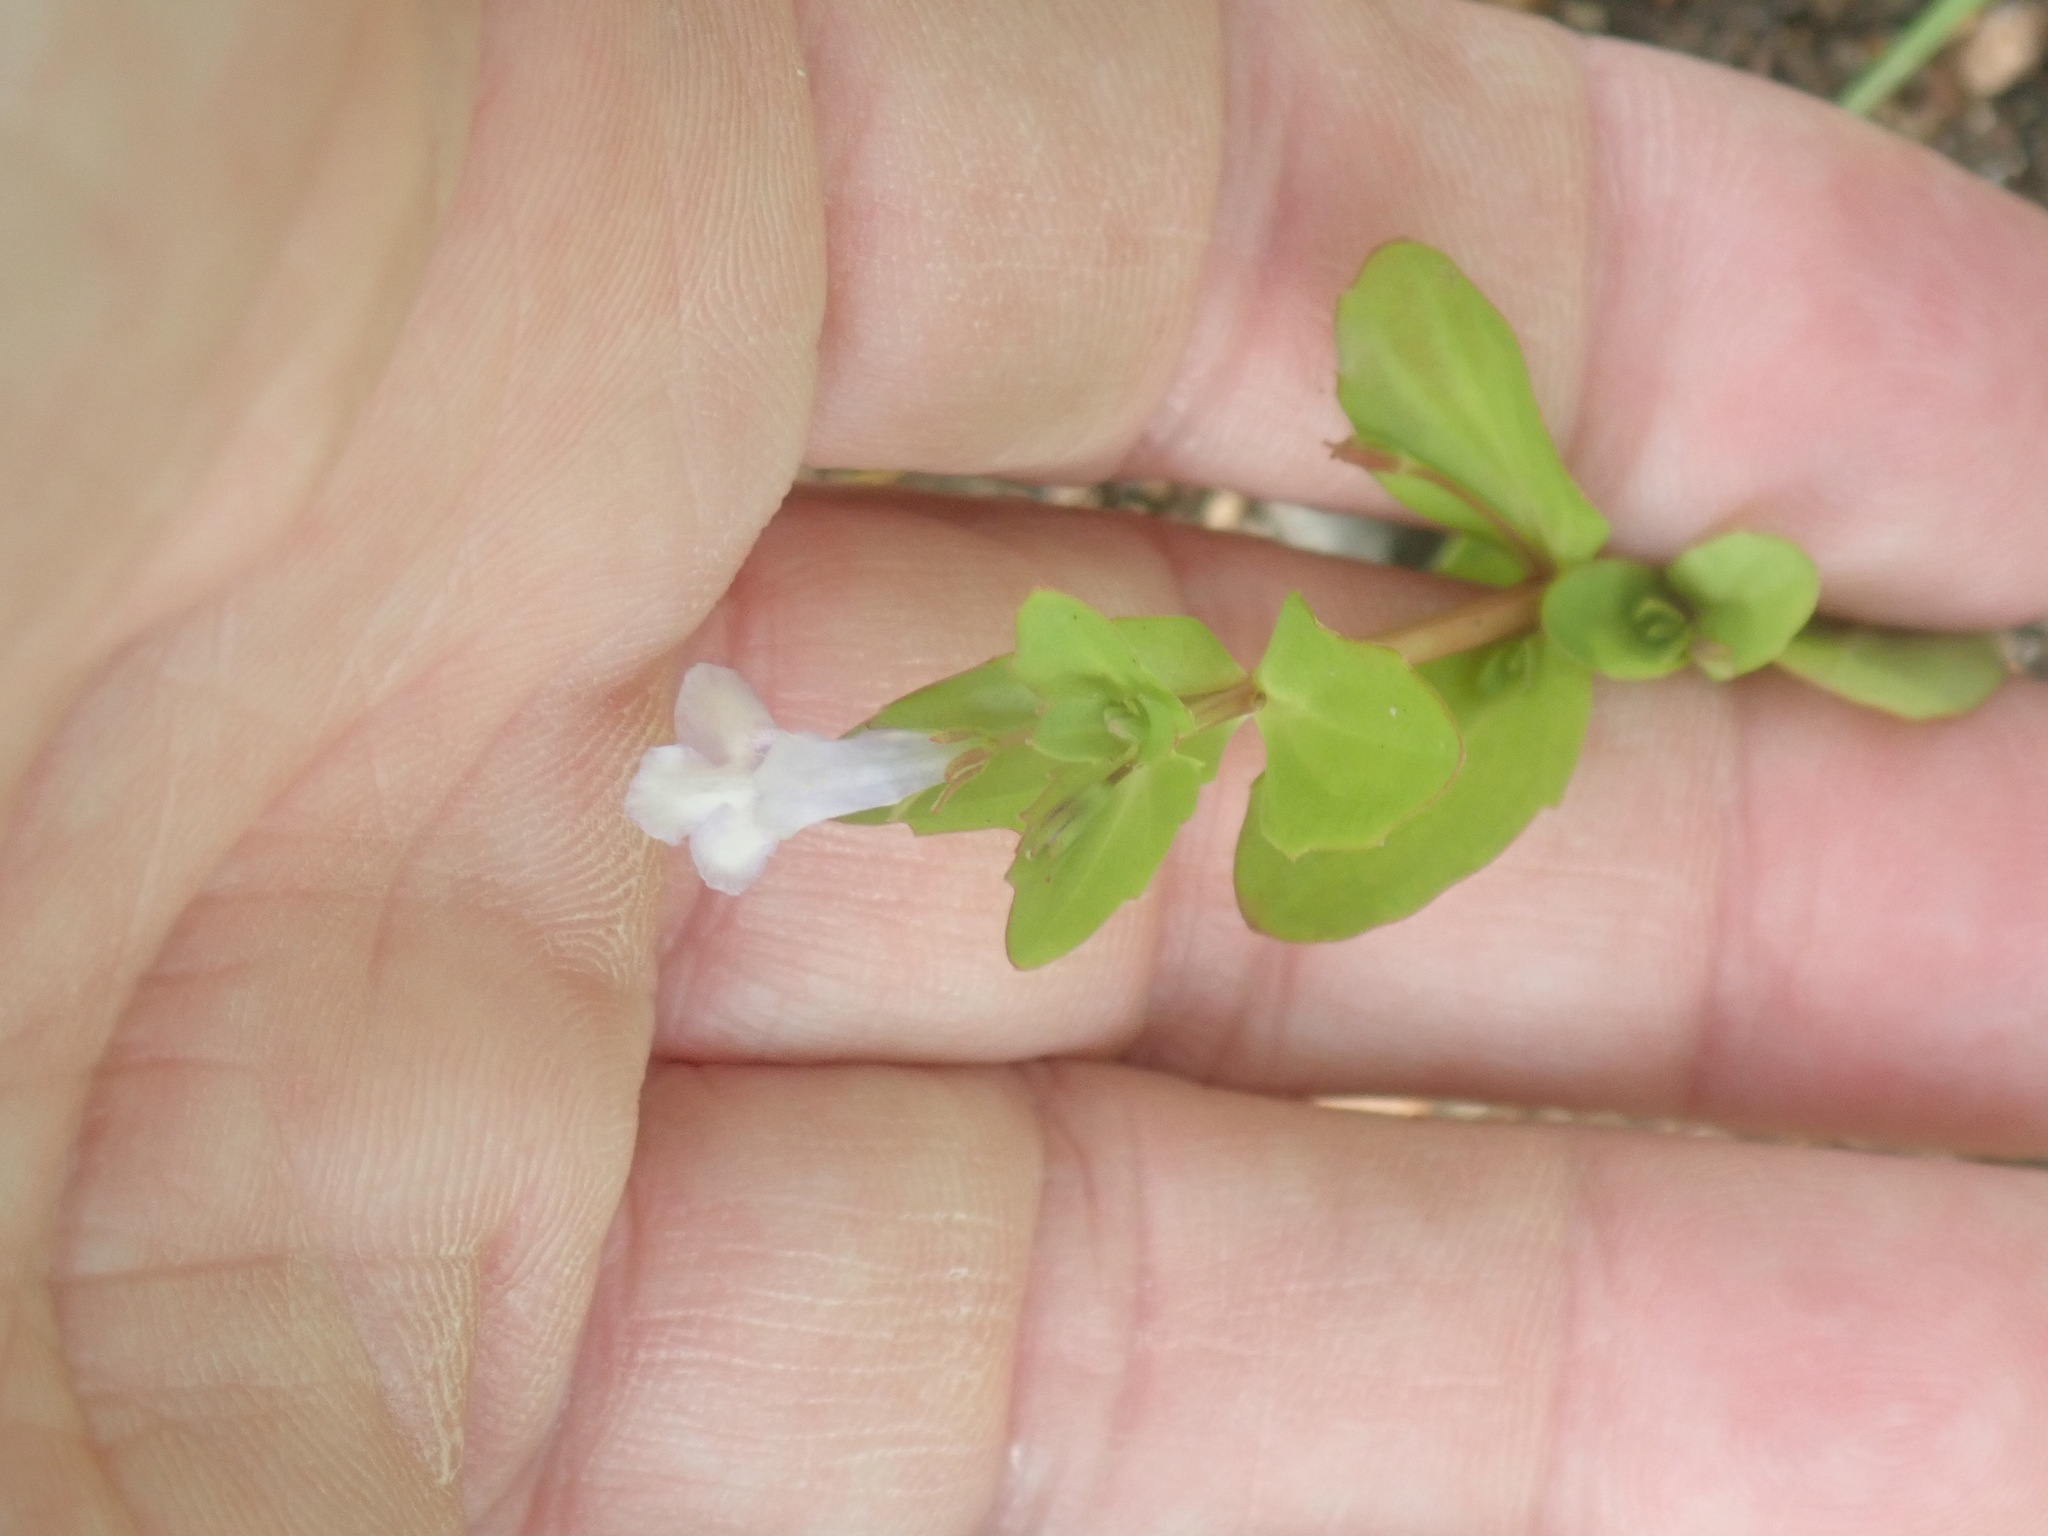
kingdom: Plantae
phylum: Tracheophyta
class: Magnoliopsida
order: Lamiales
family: Linderniaceae
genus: Lindernia
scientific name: Lindernia dubia
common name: Annual false pimpernel
